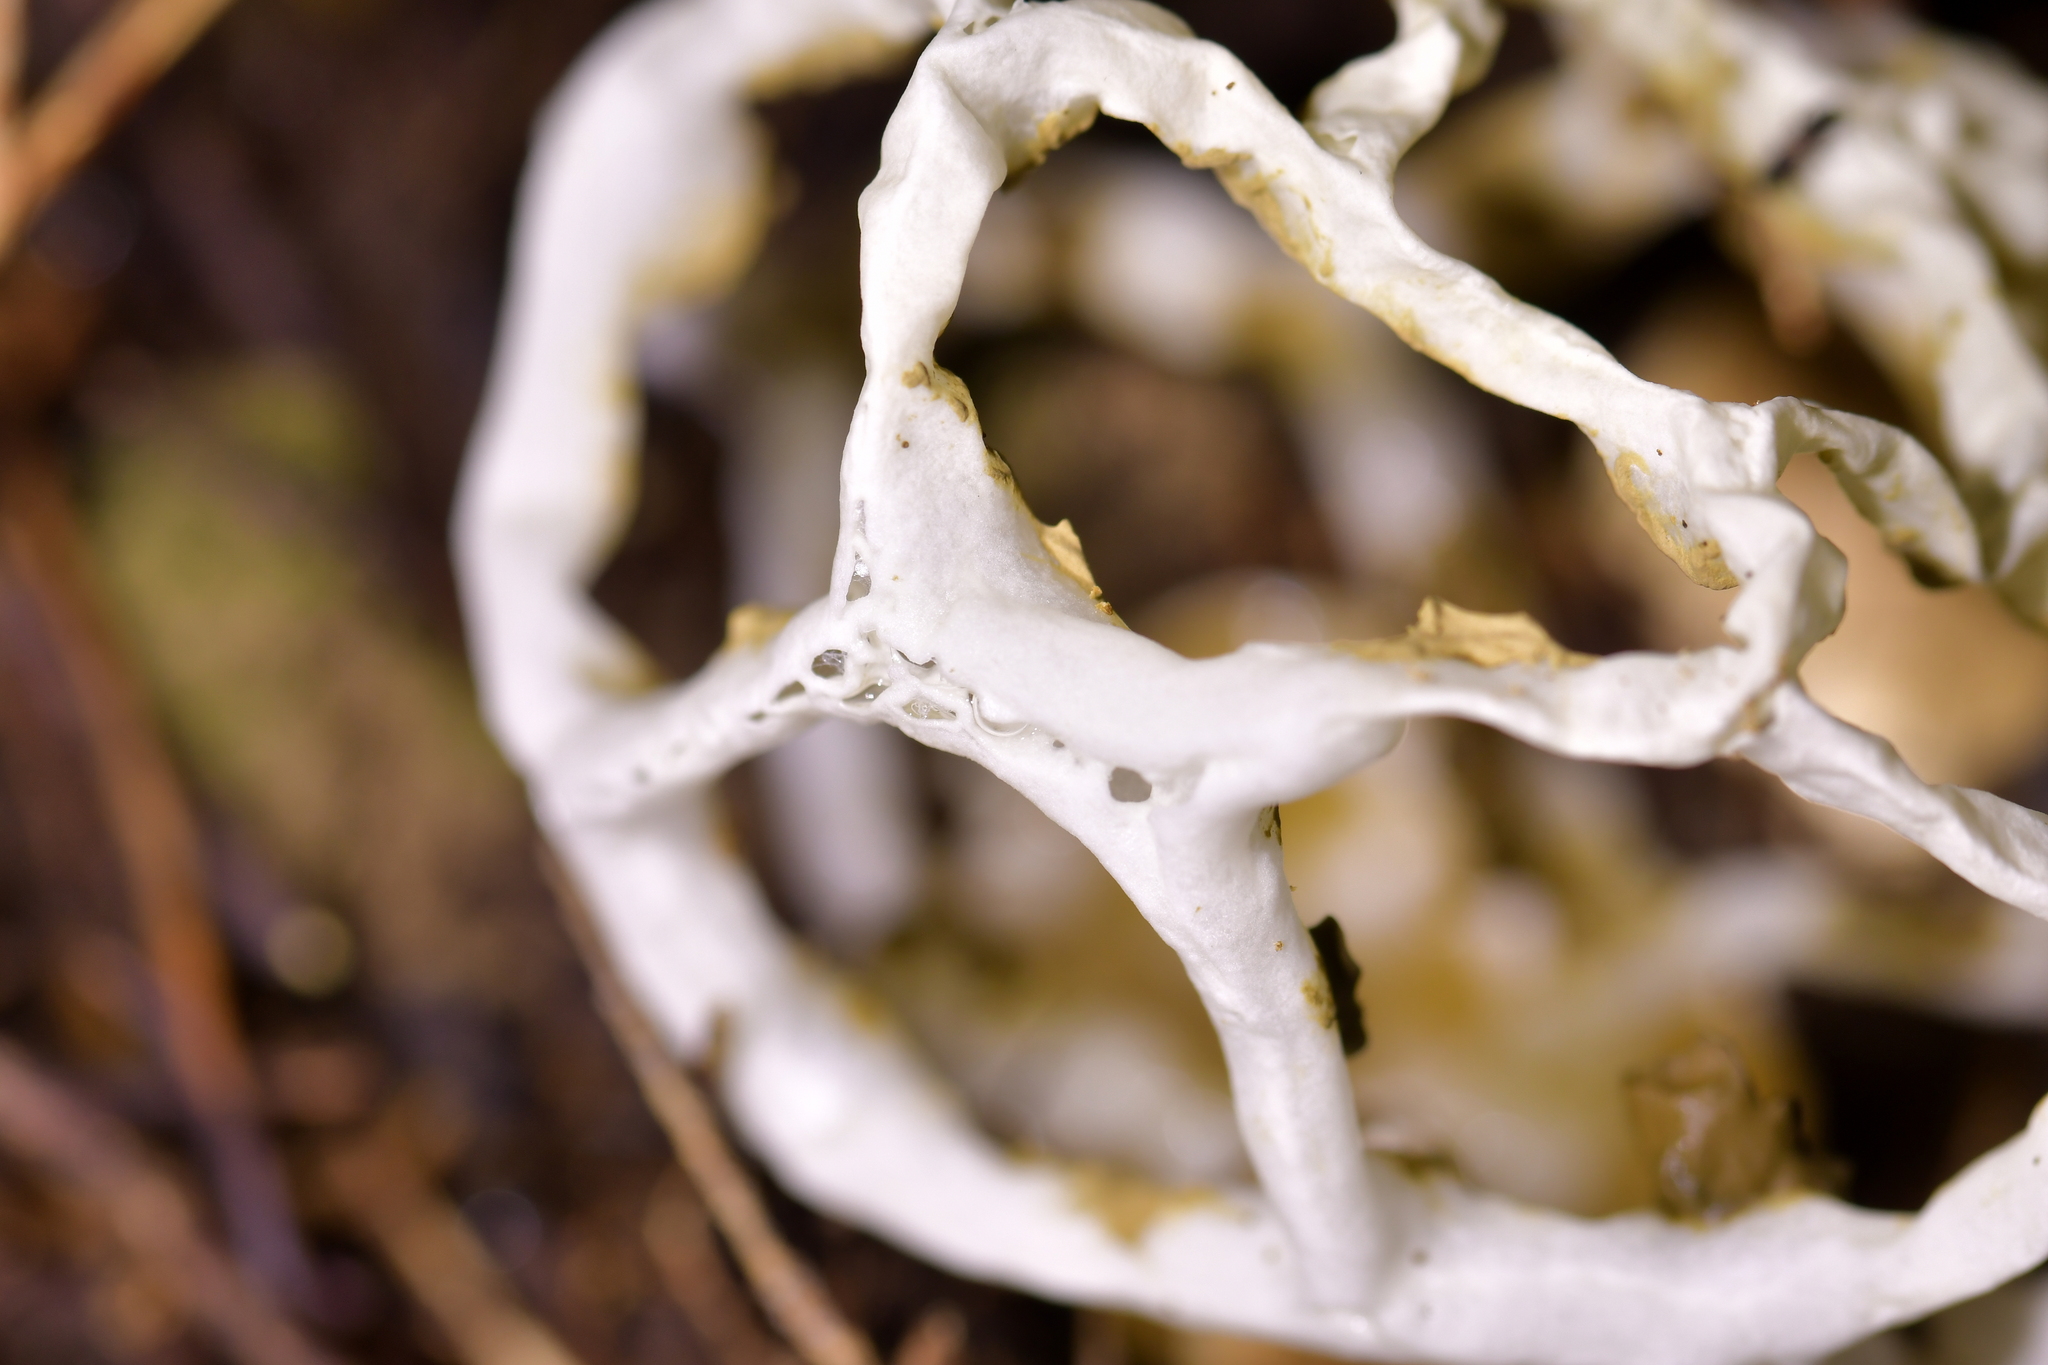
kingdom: Fungi
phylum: Basidiomycota
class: Agaricomycetes
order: Phallales
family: Phallaceae
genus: Ileodictyon
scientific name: Ileodictyon cibarium
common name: Basket fungus
